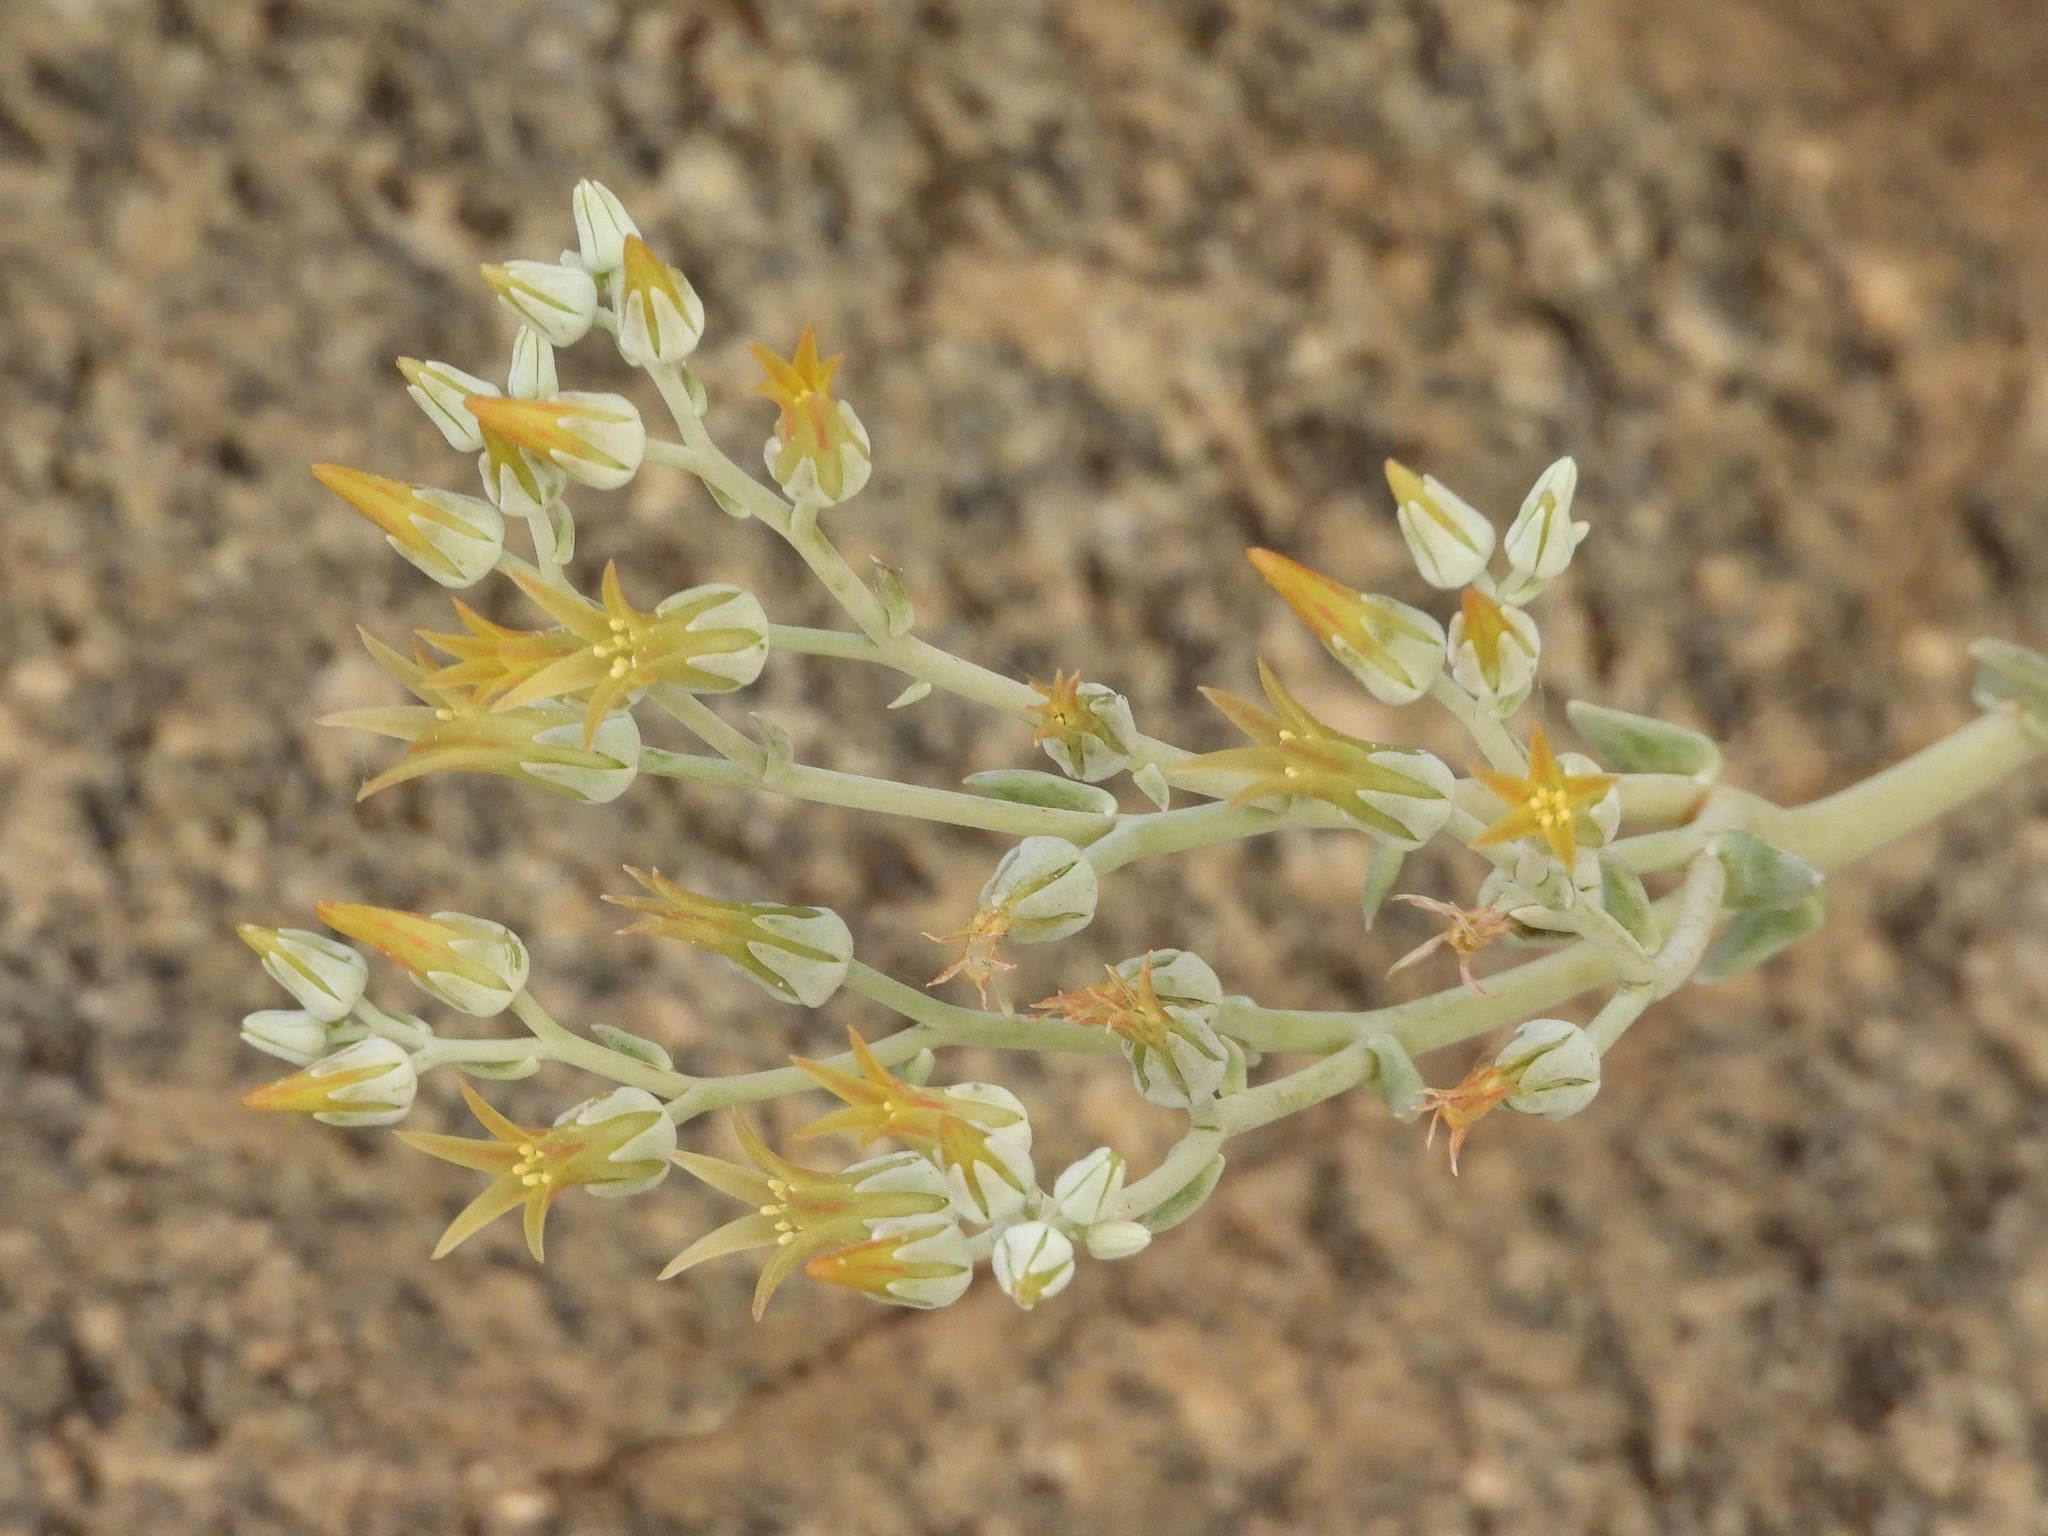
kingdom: Plantae
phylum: Tracheophyta
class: Magnoliopsida
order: Saxifragales
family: Crassulaceae
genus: Dudleya
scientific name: Dudleya abramsii
